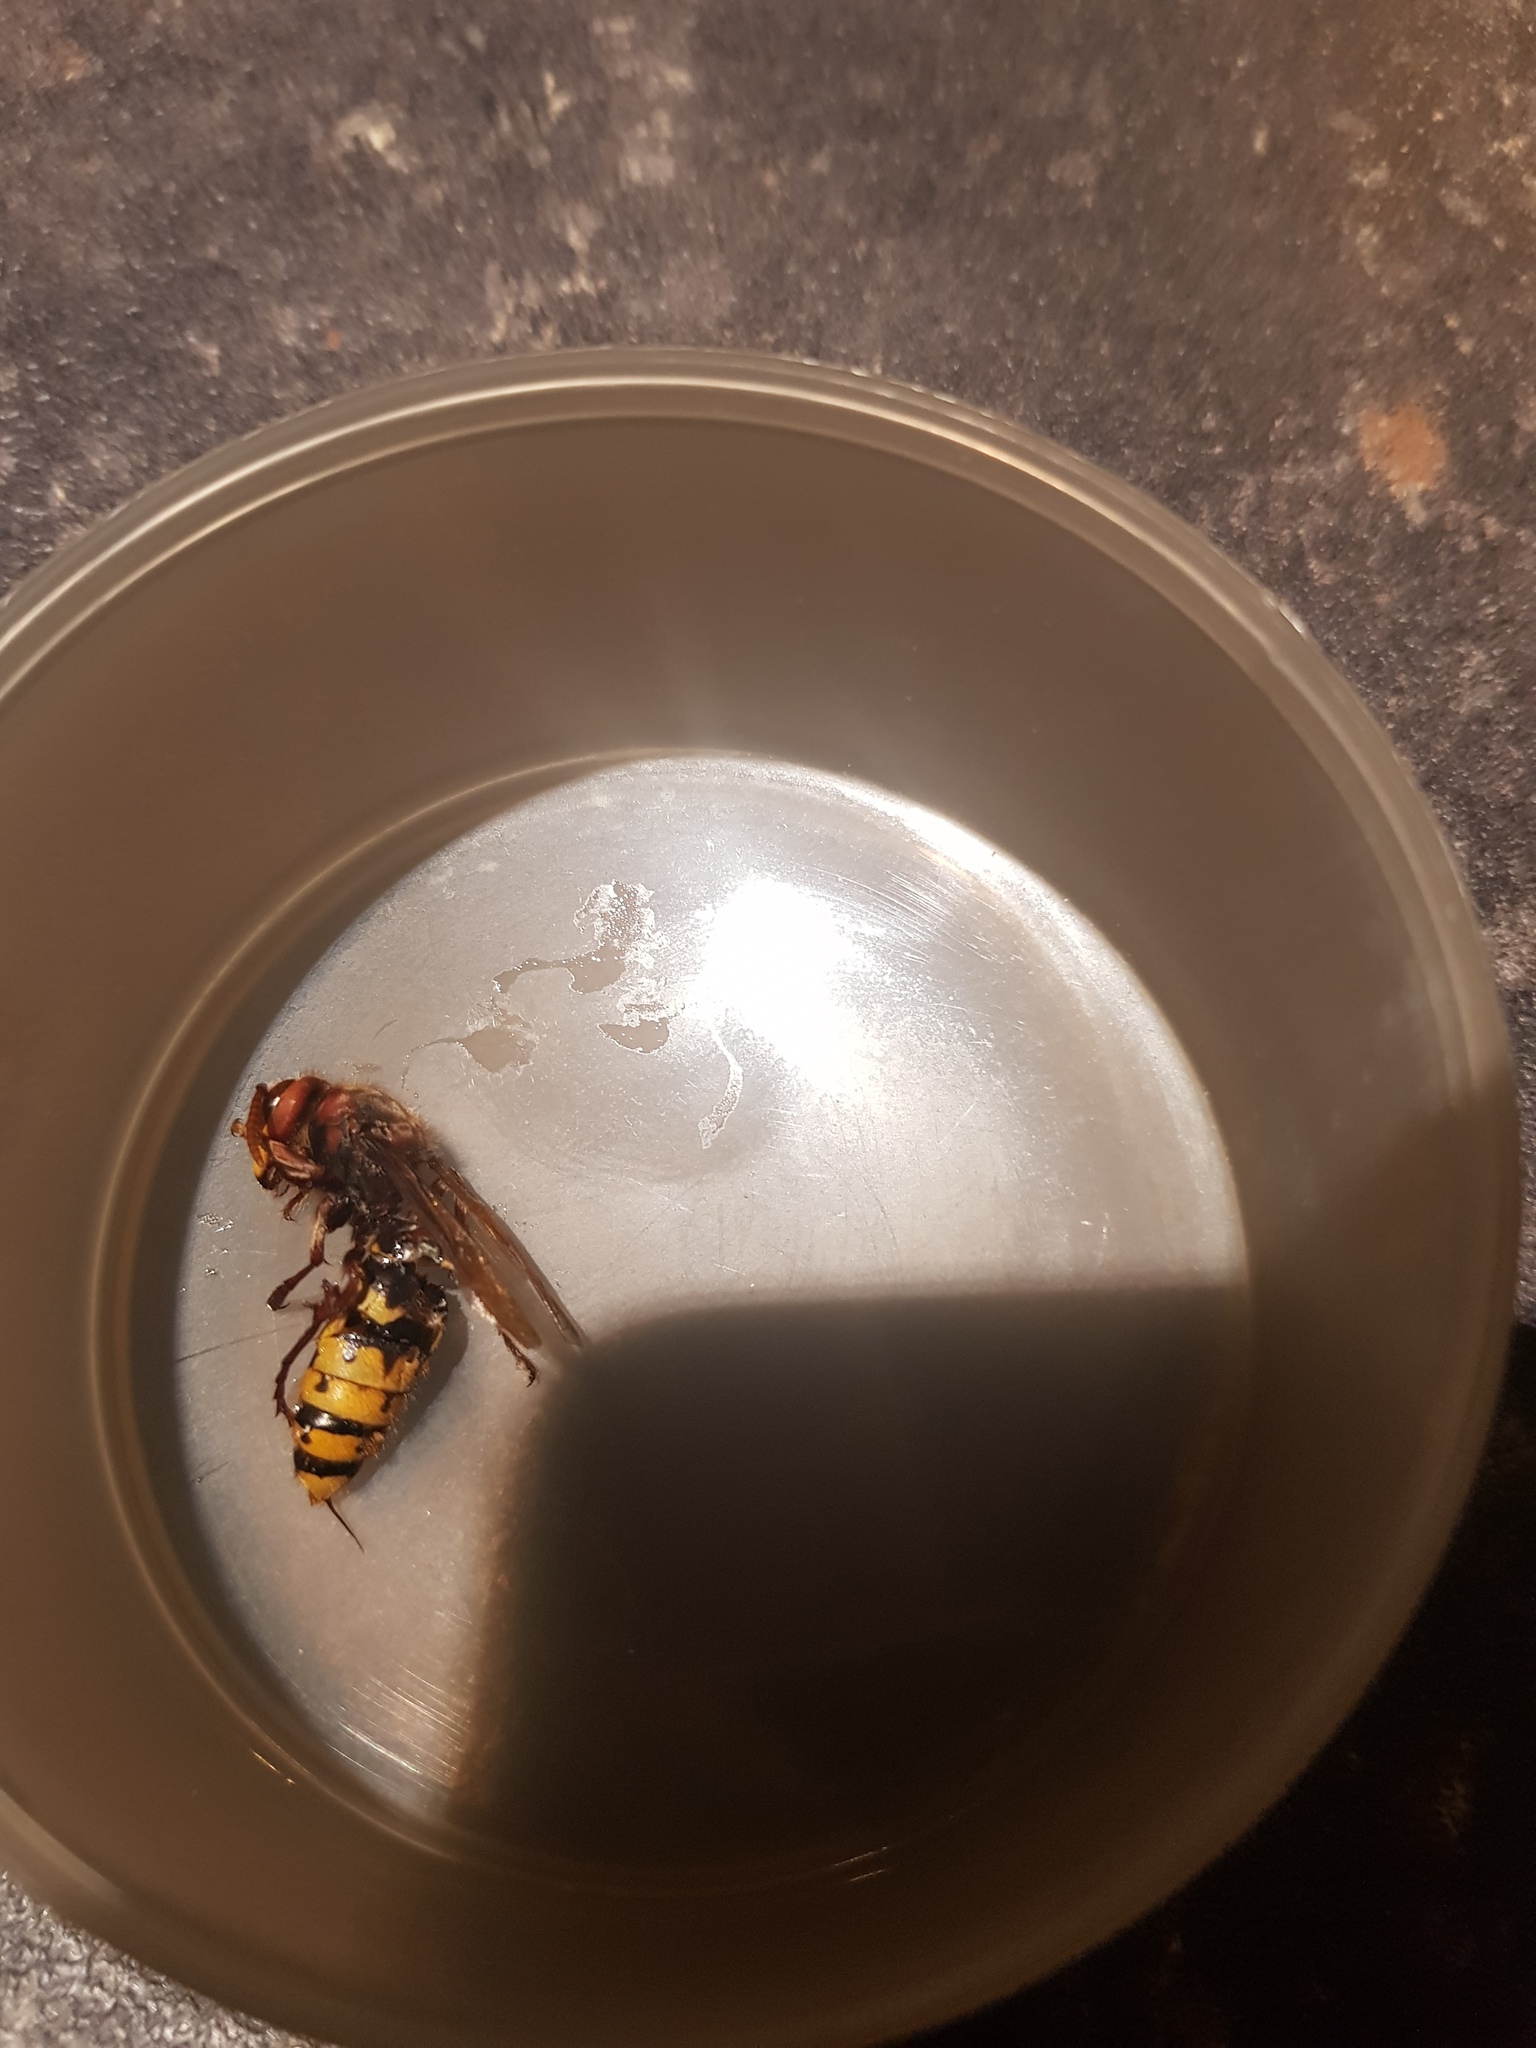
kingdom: Animalia
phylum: Arthropoda
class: Insecta
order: Hymenoptera
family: Vespidae
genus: Vespa
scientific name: Vespa crabro
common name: Hornet
